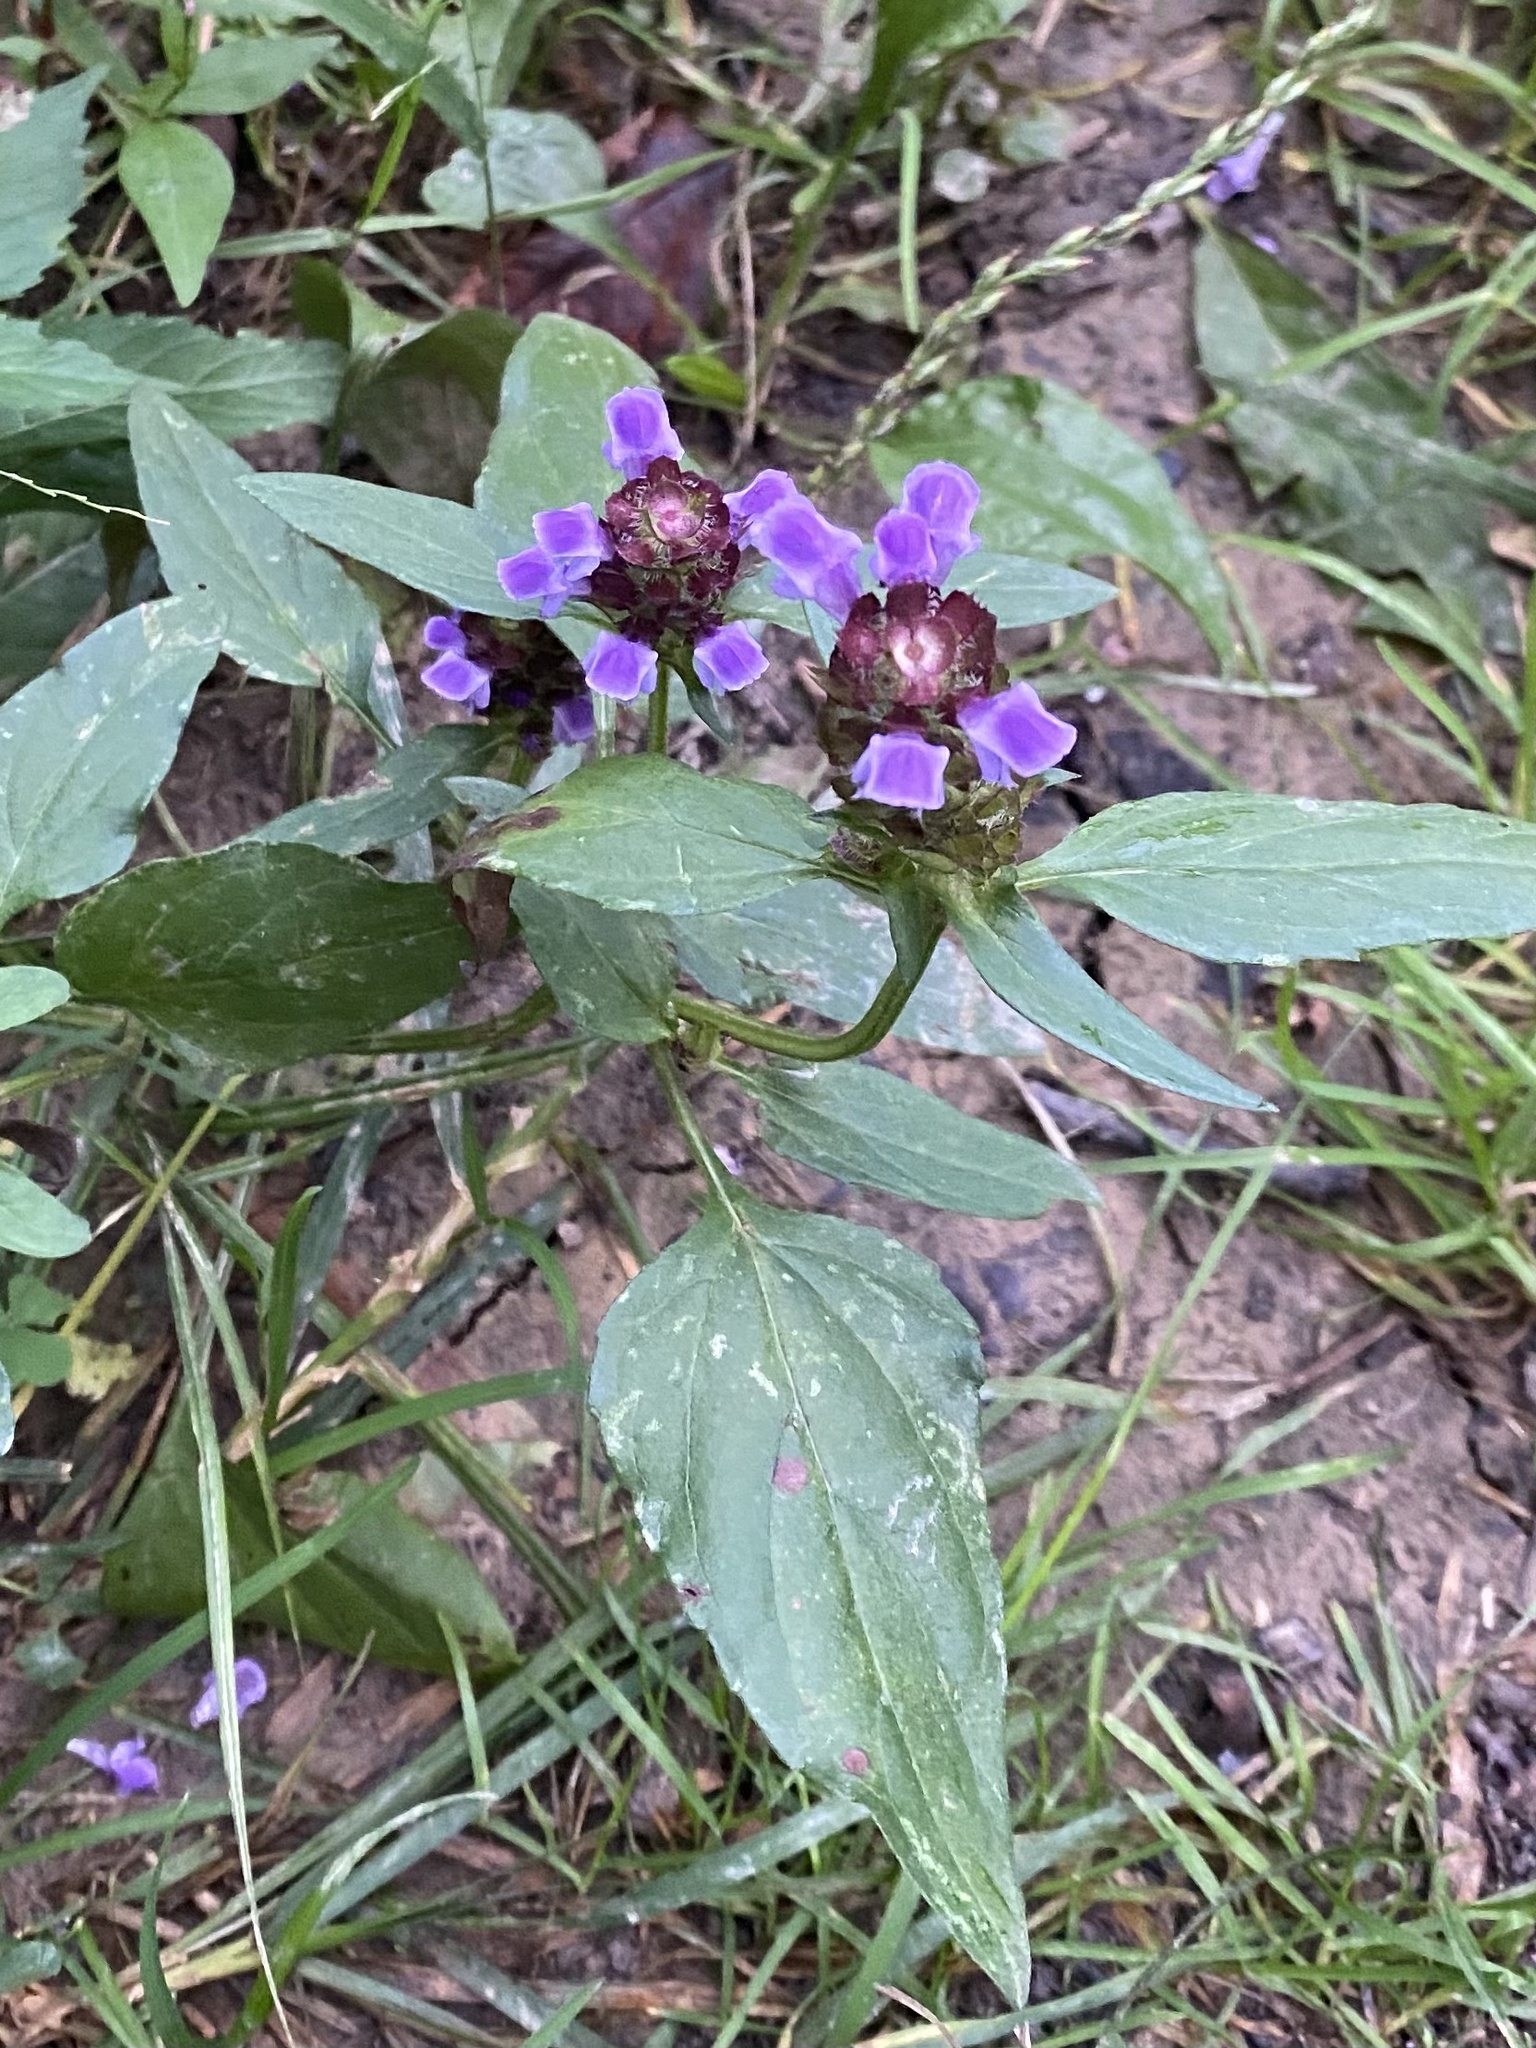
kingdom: Plantae
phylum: Tracheophyta
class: Magnoliopsida
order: Lamiales
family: Lamiaceae
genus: Prunella
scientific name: Prunella vulgaris
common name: Heal-all
